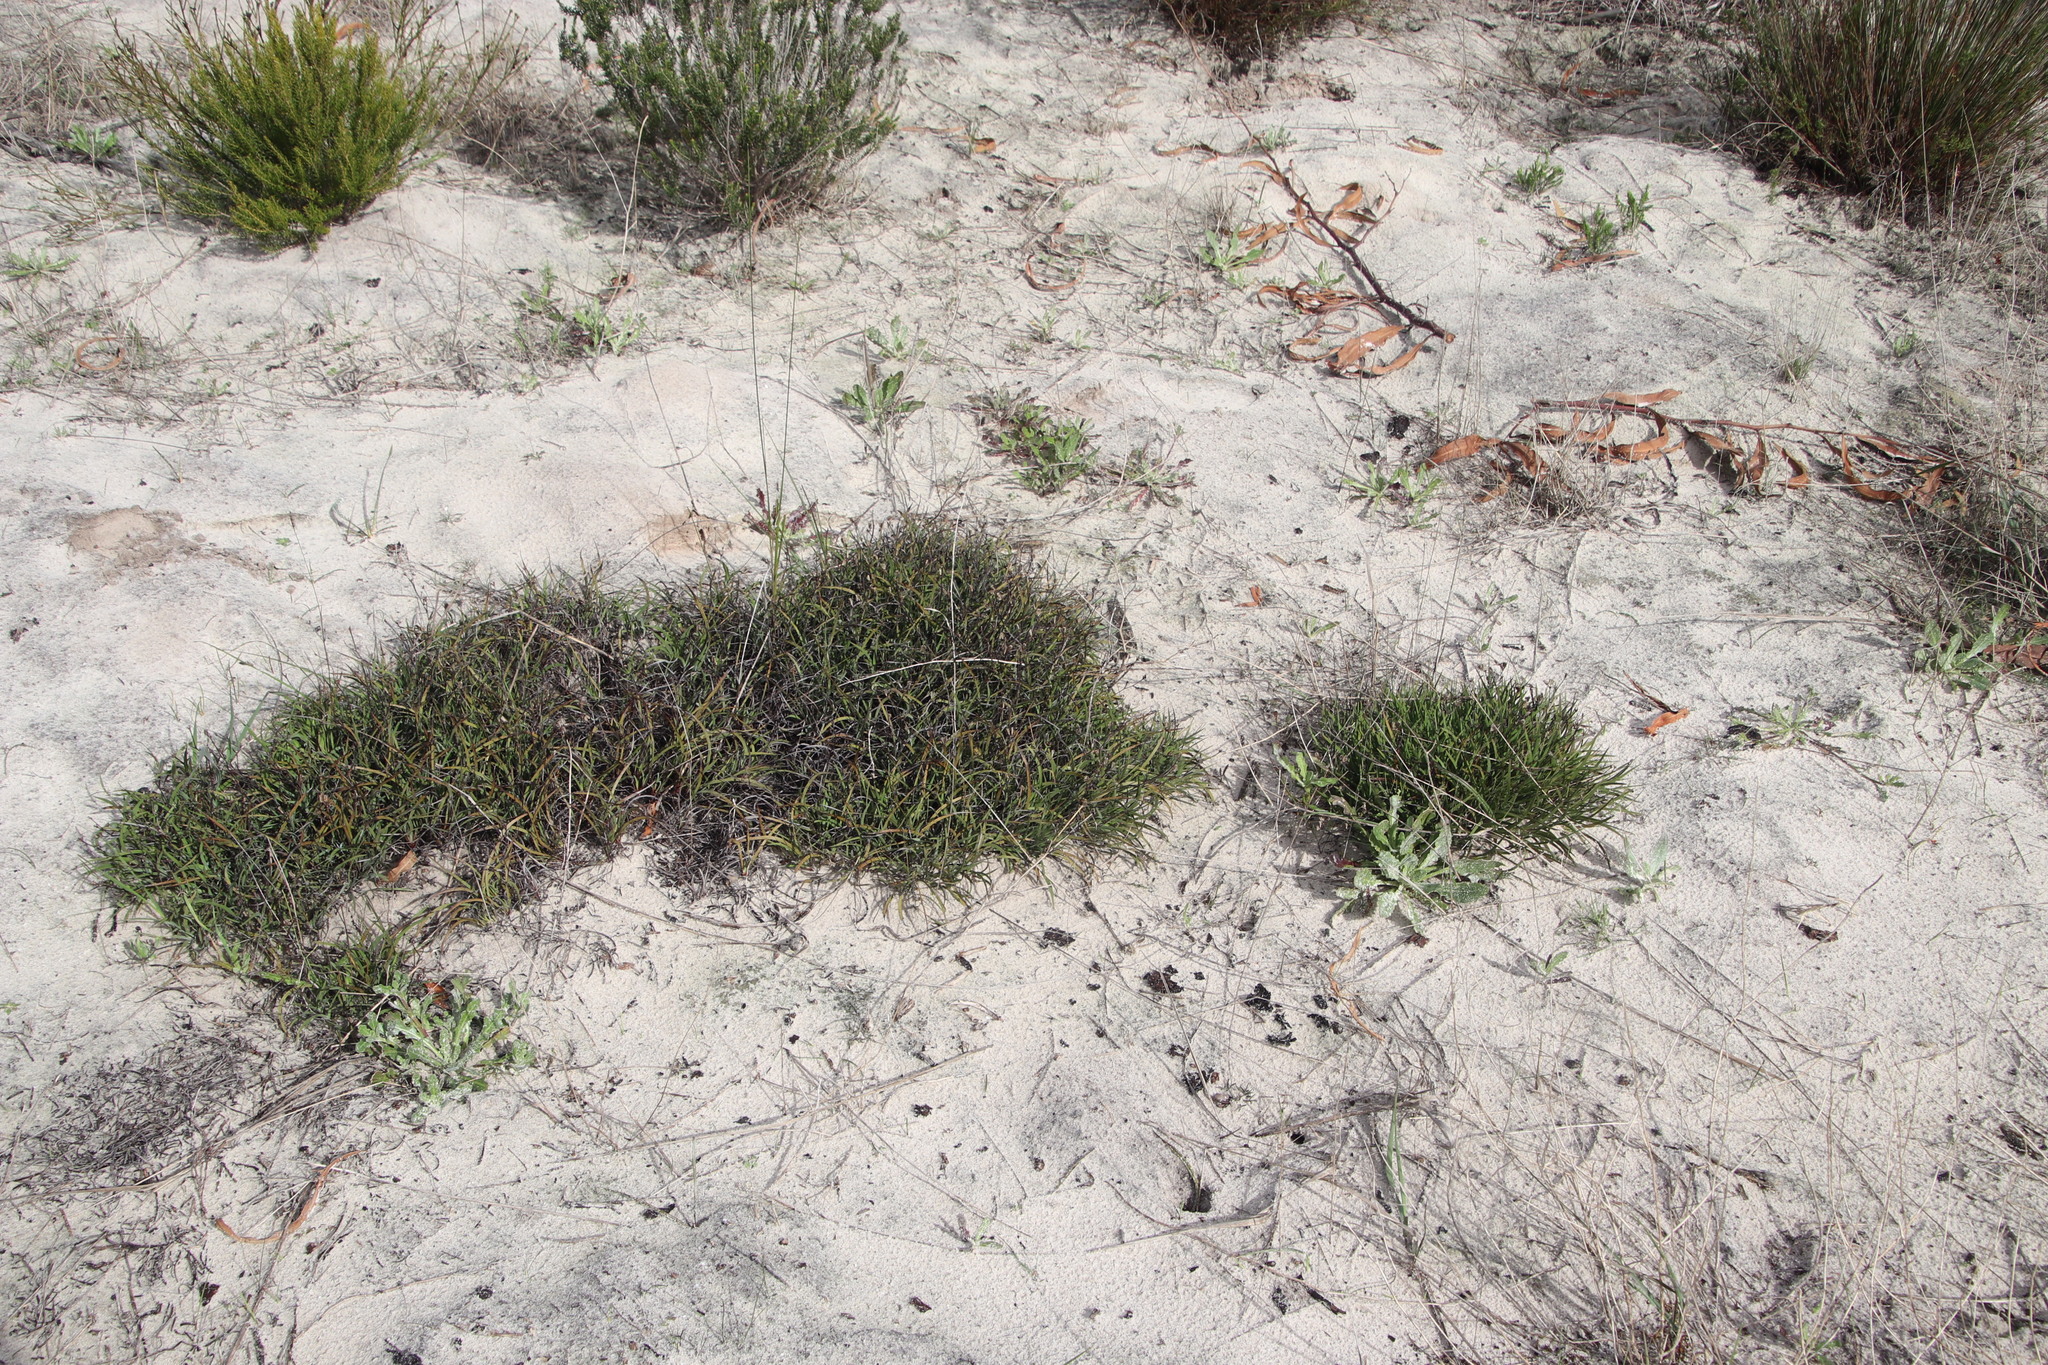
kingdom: Plantae
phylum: Tracheophyta
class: Liliopsida
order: Asparagales
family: Iridaceae
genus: Aristea
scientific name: Aristea africana
